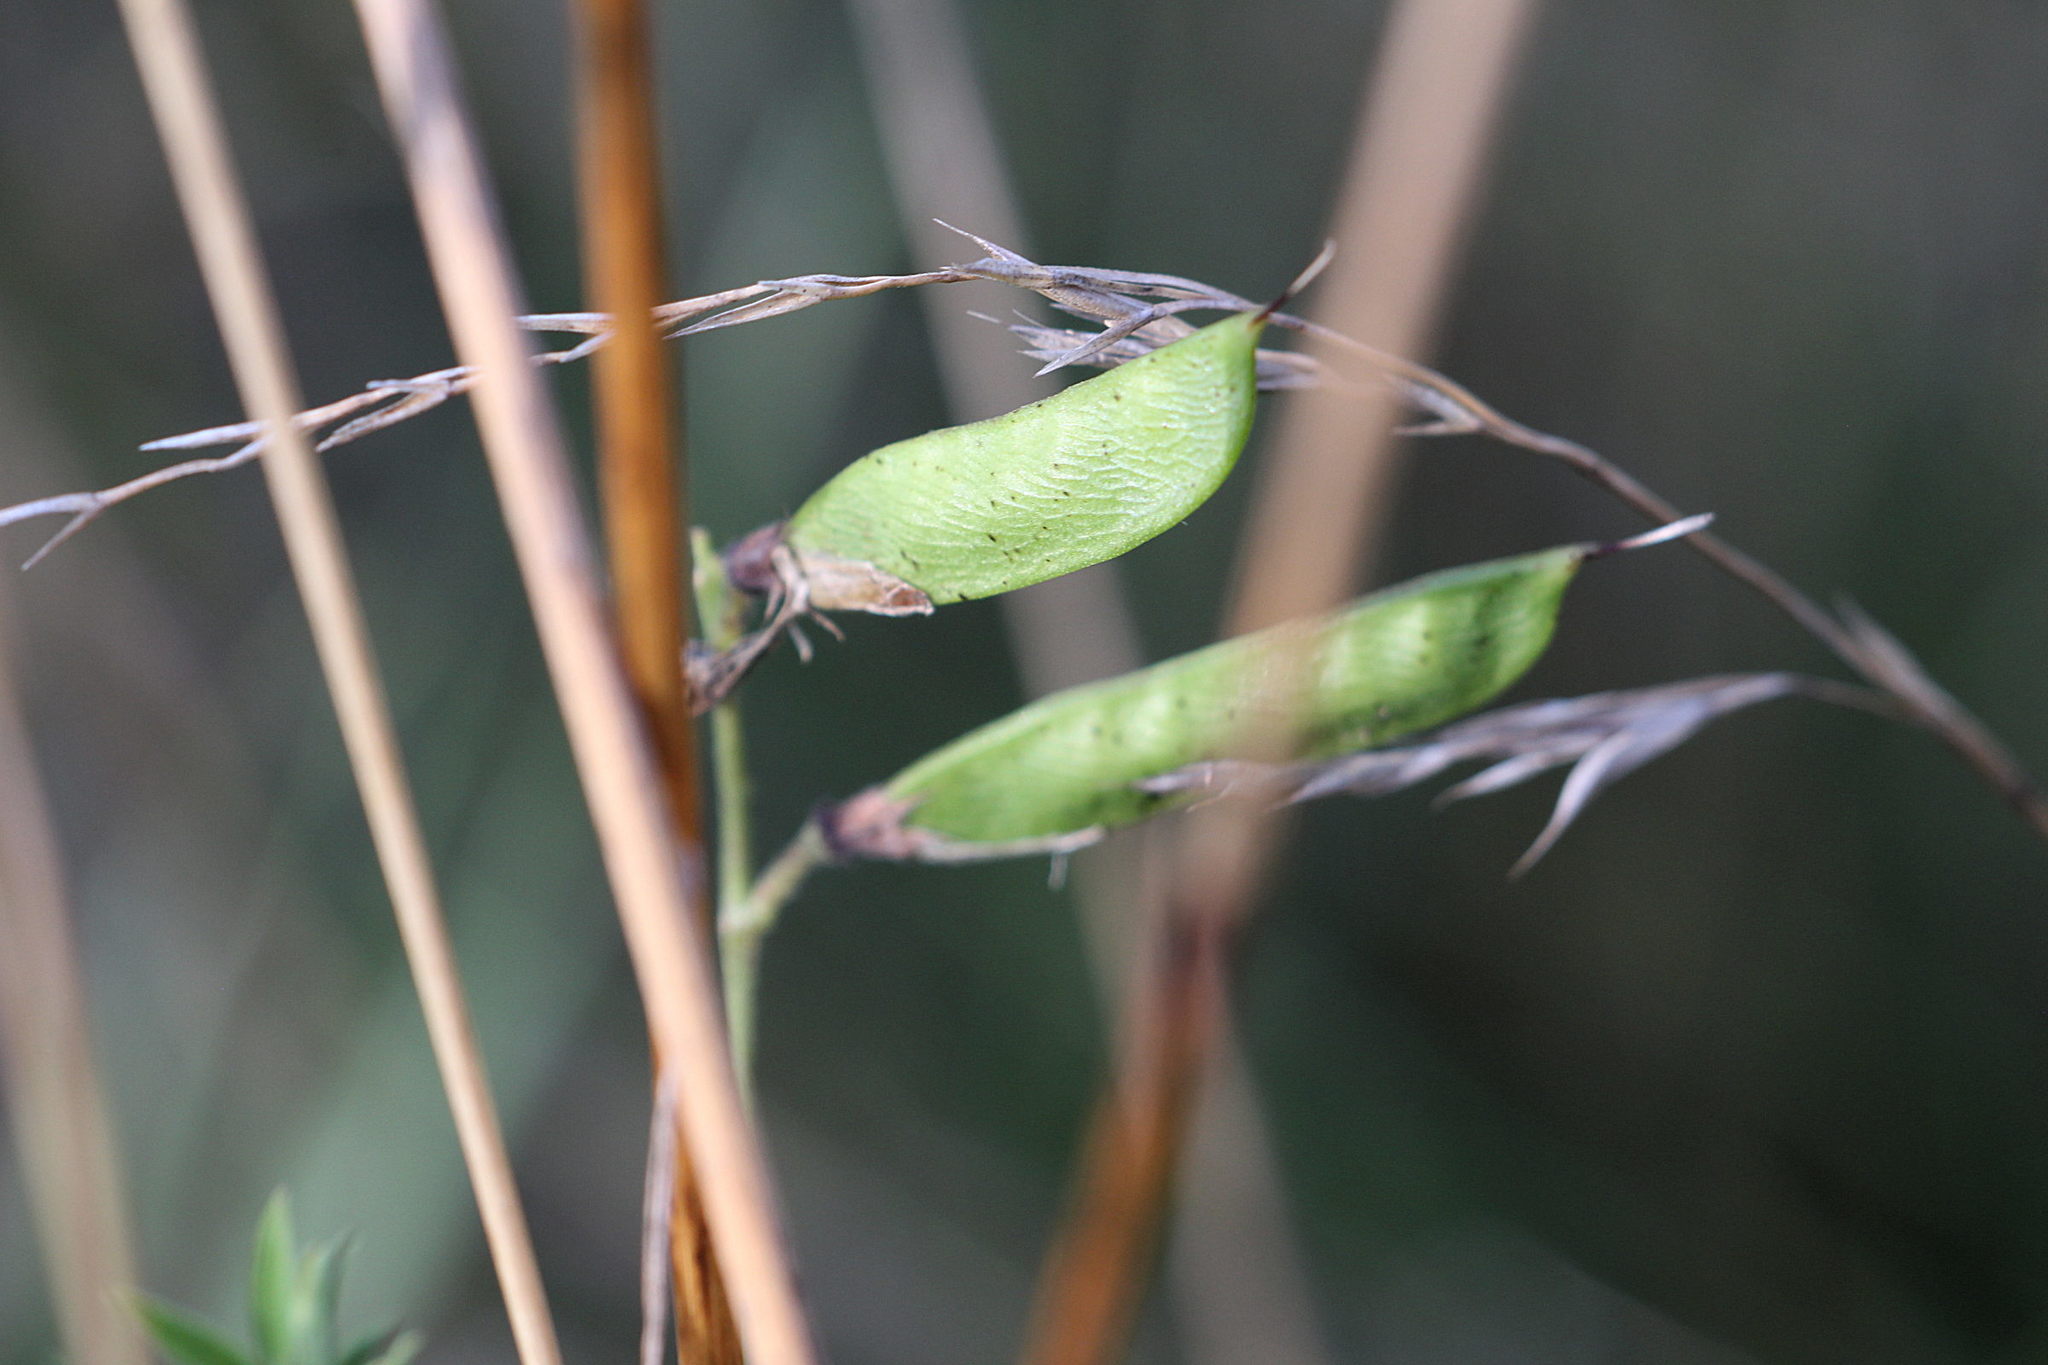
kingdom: Plantae
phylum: Tracheophyta
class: Magnoliopsida
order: Fabales
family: Fabaceae
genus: Lathyrus
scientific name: Lathyrus pratensis
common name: Meadow vetchling
